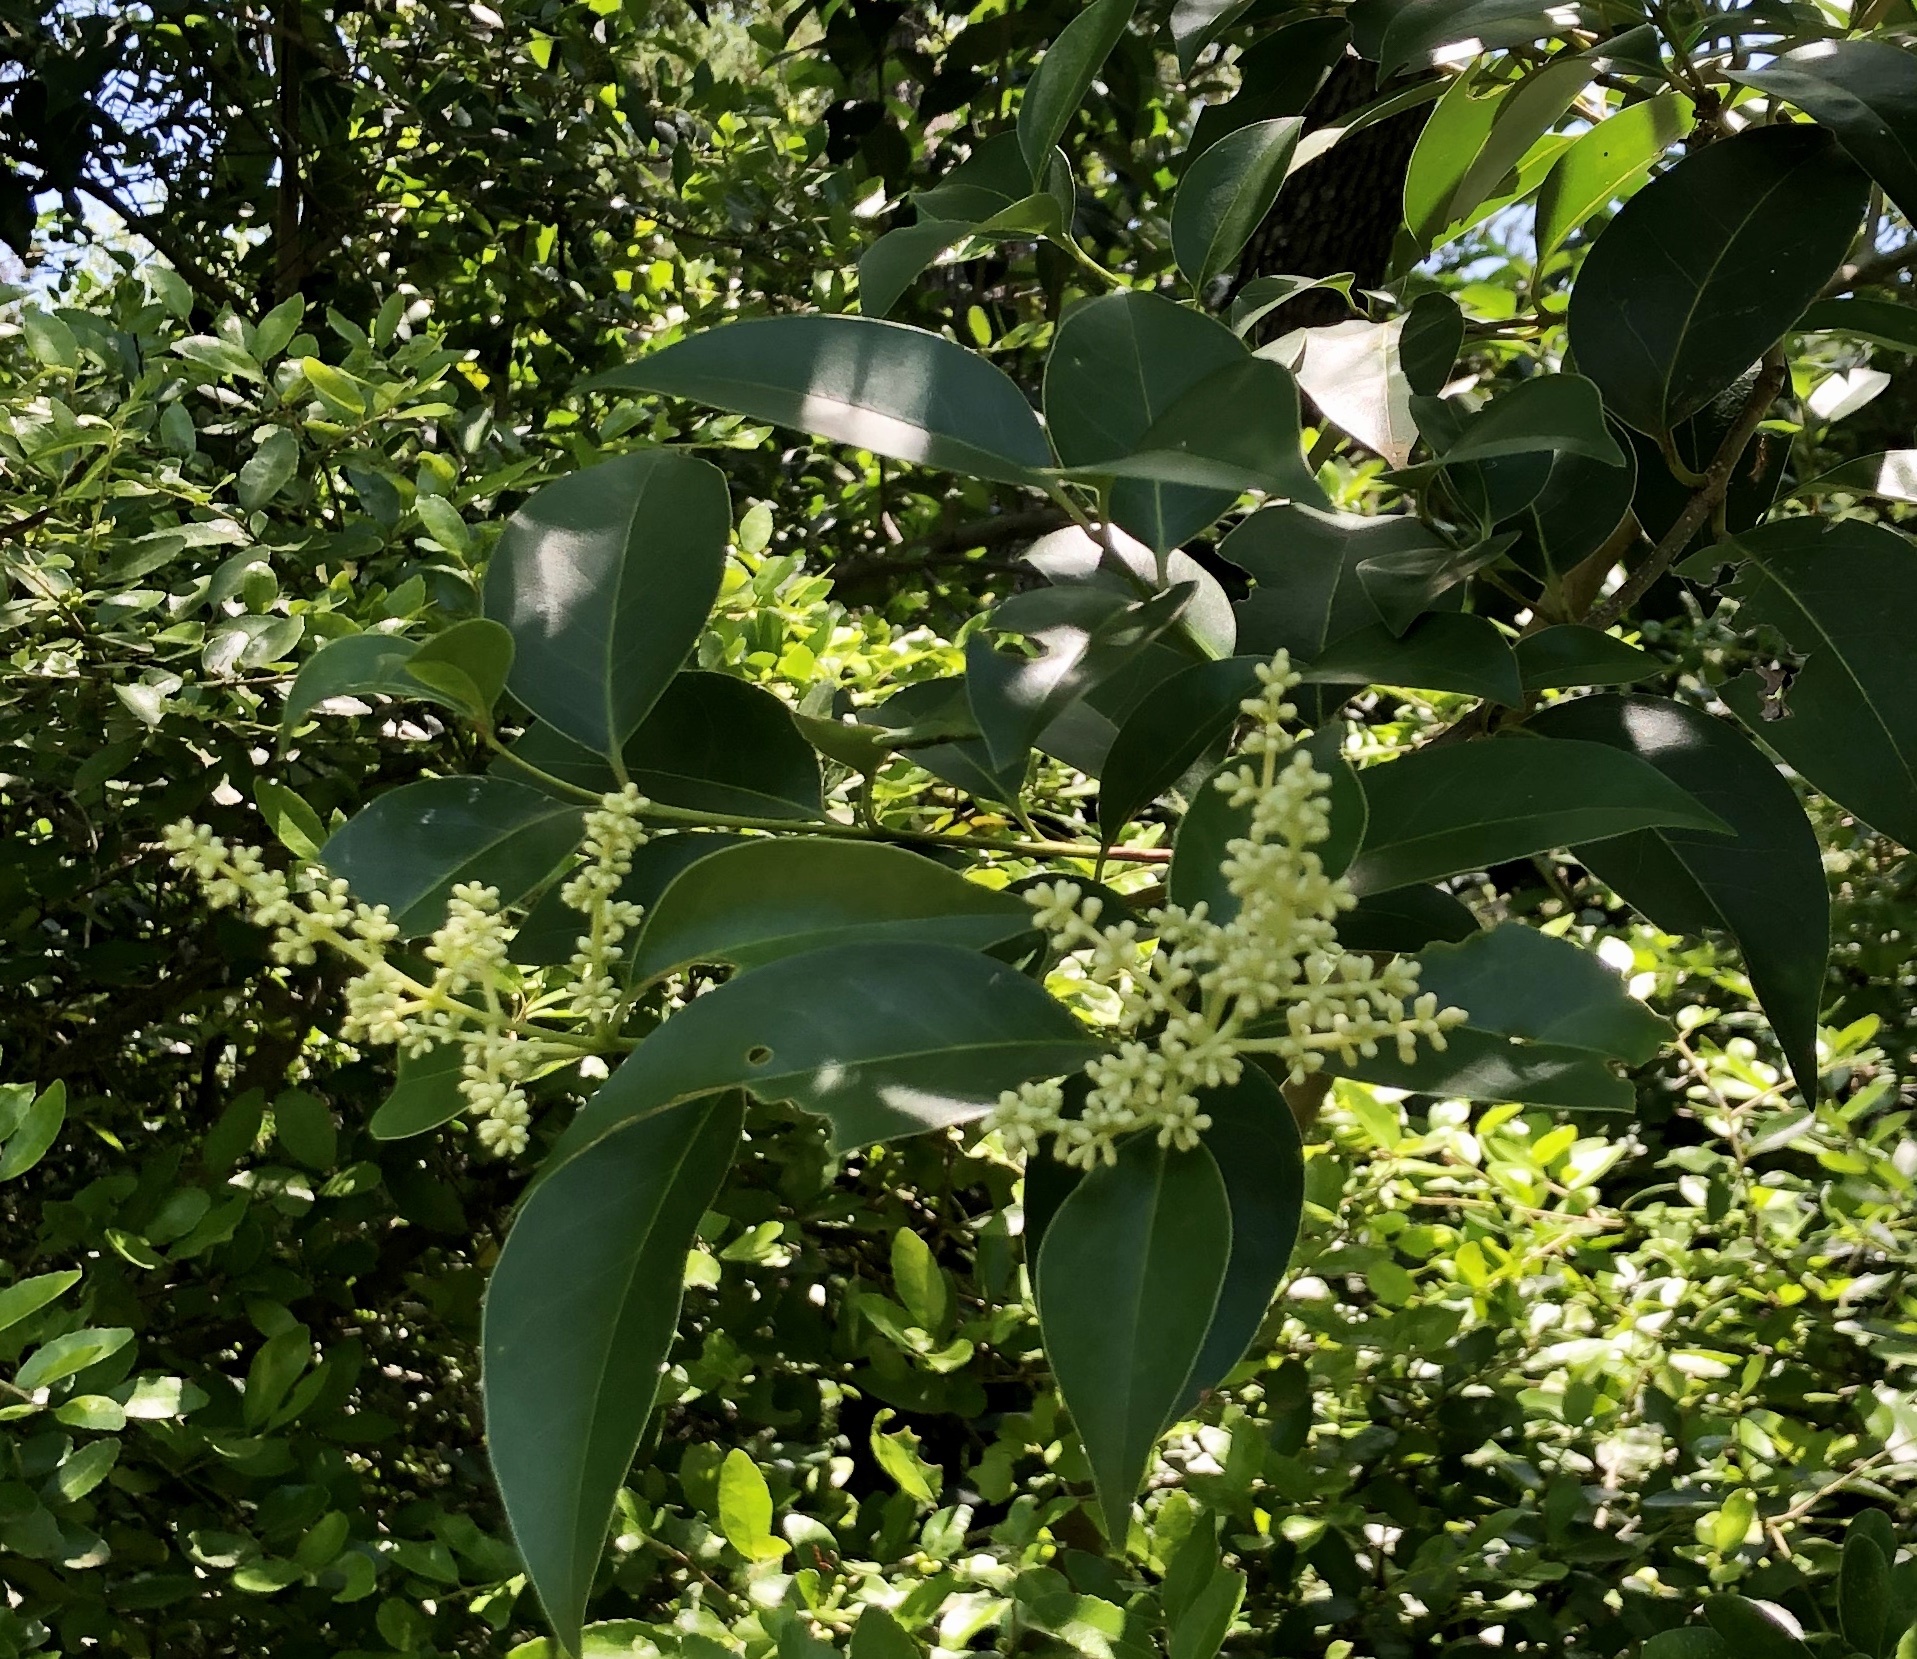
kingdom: Plantae
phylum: Tracheophyta
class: Magnoliopsida
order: Lamiales
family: Oleaceae
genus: Ligustrum
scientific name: Ligustrum lucidum
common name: Glossy privet
